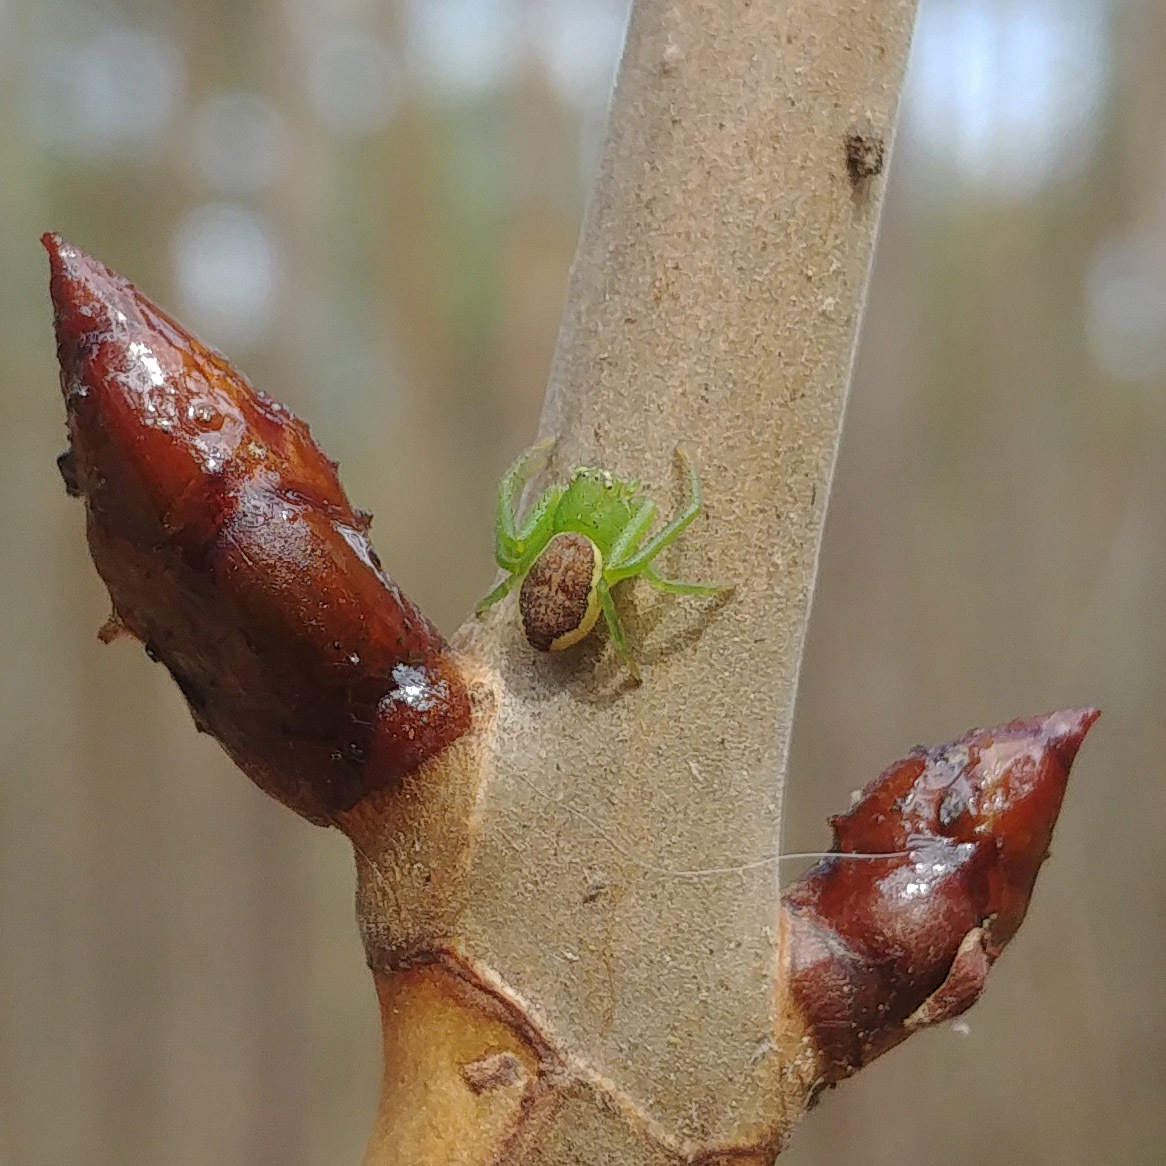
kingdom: Animalia
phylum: Arthropoda
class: Arachnida
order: Araneae
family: Thomisidae
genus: Diaea
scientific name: Diaea dorsata
